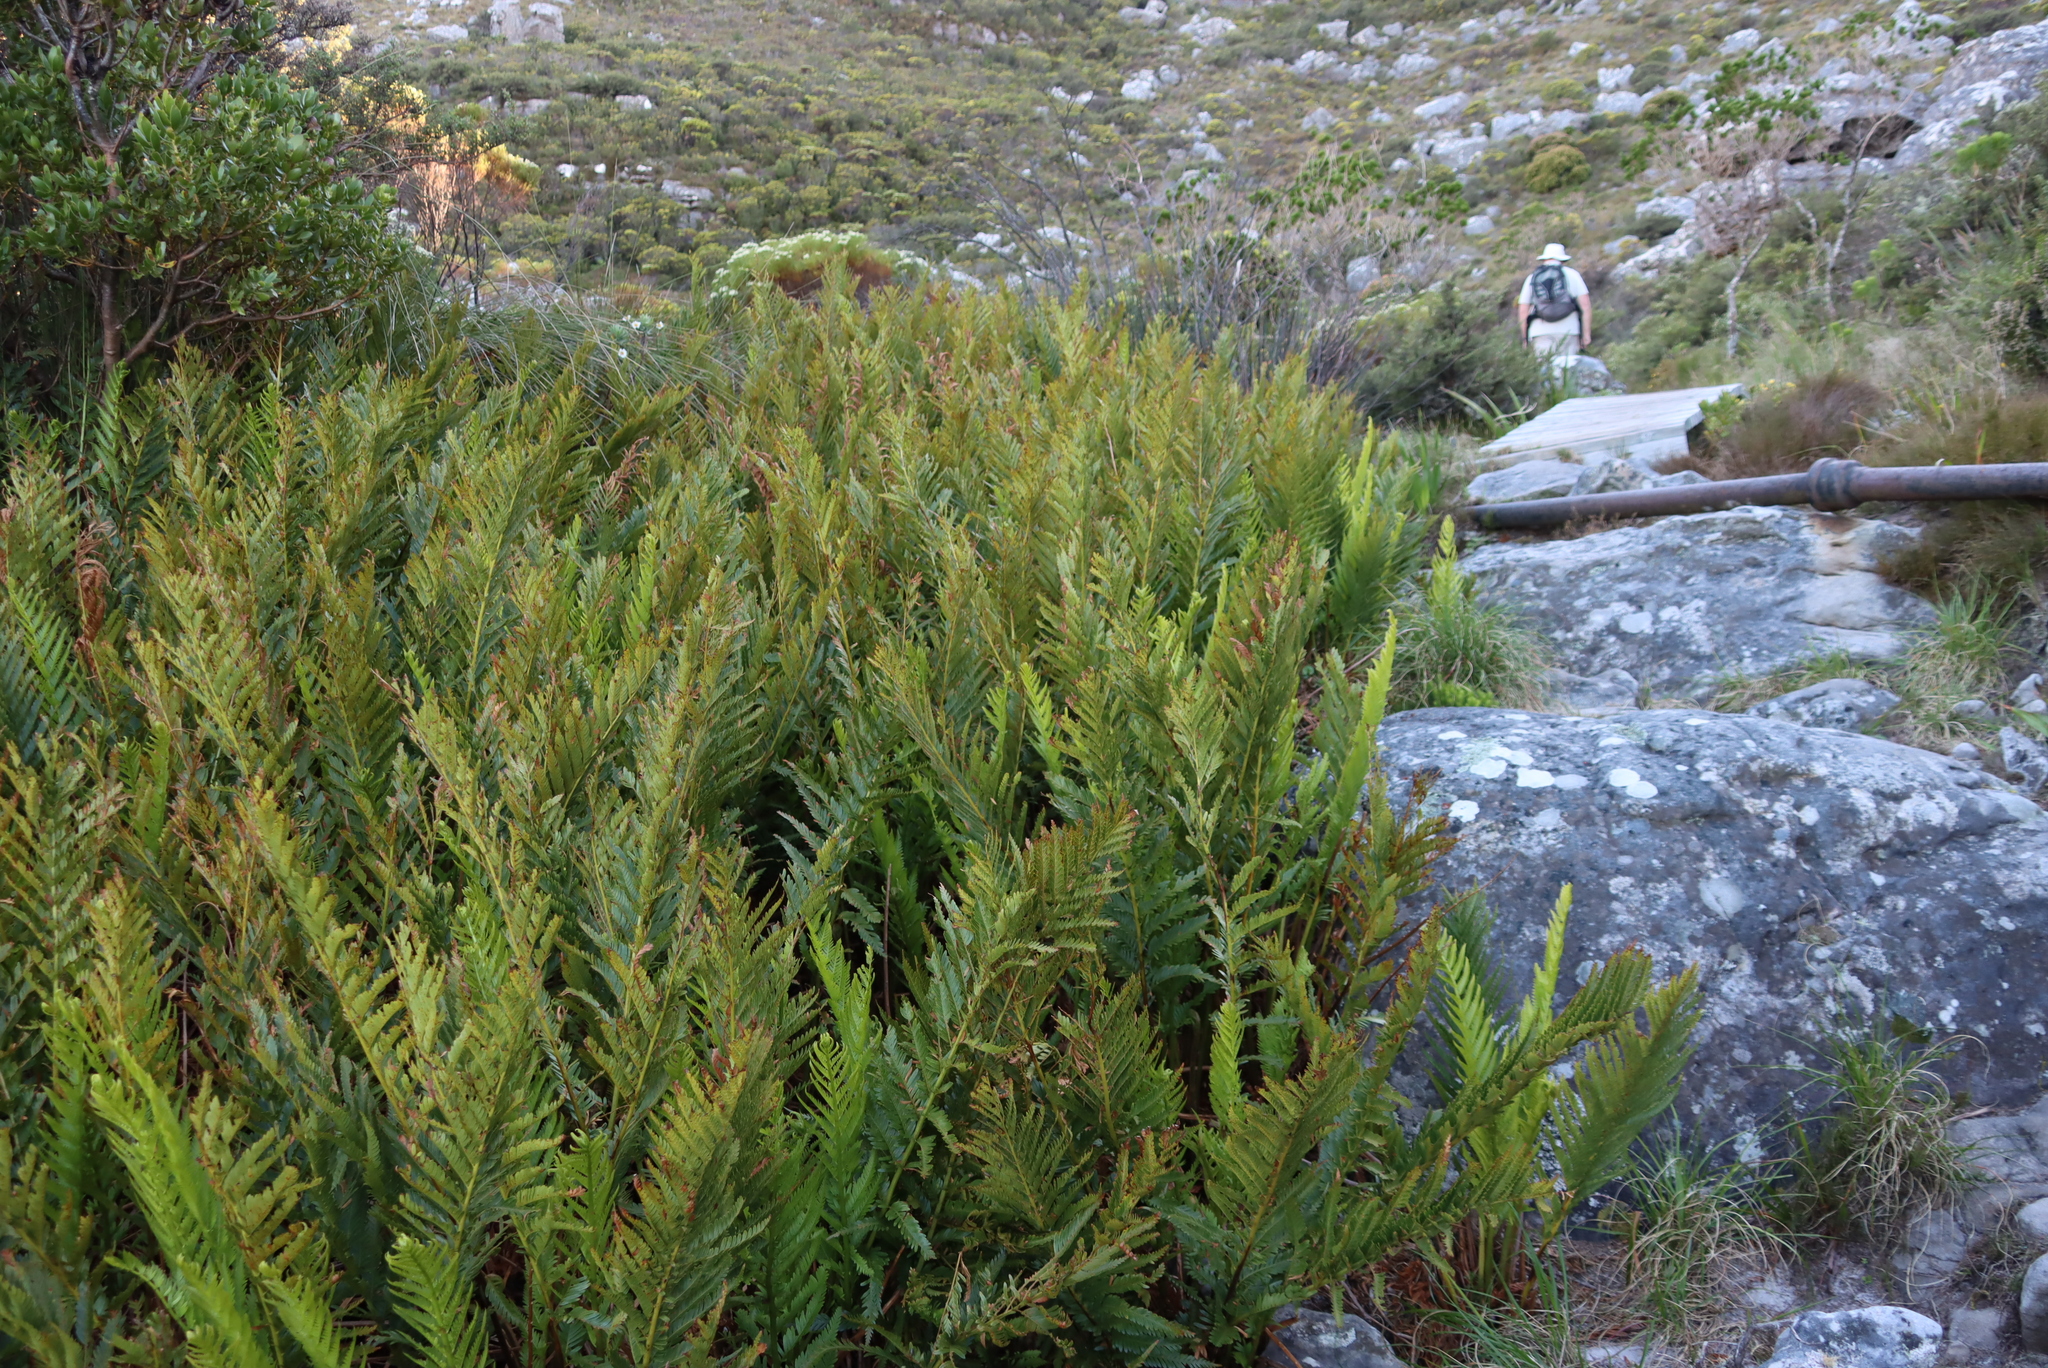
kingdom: Plantae
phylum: Tracheophyta
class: Polypodiopsida
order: Osmundales
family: Osmundaceae
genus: Todea
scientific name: Todea barbara
